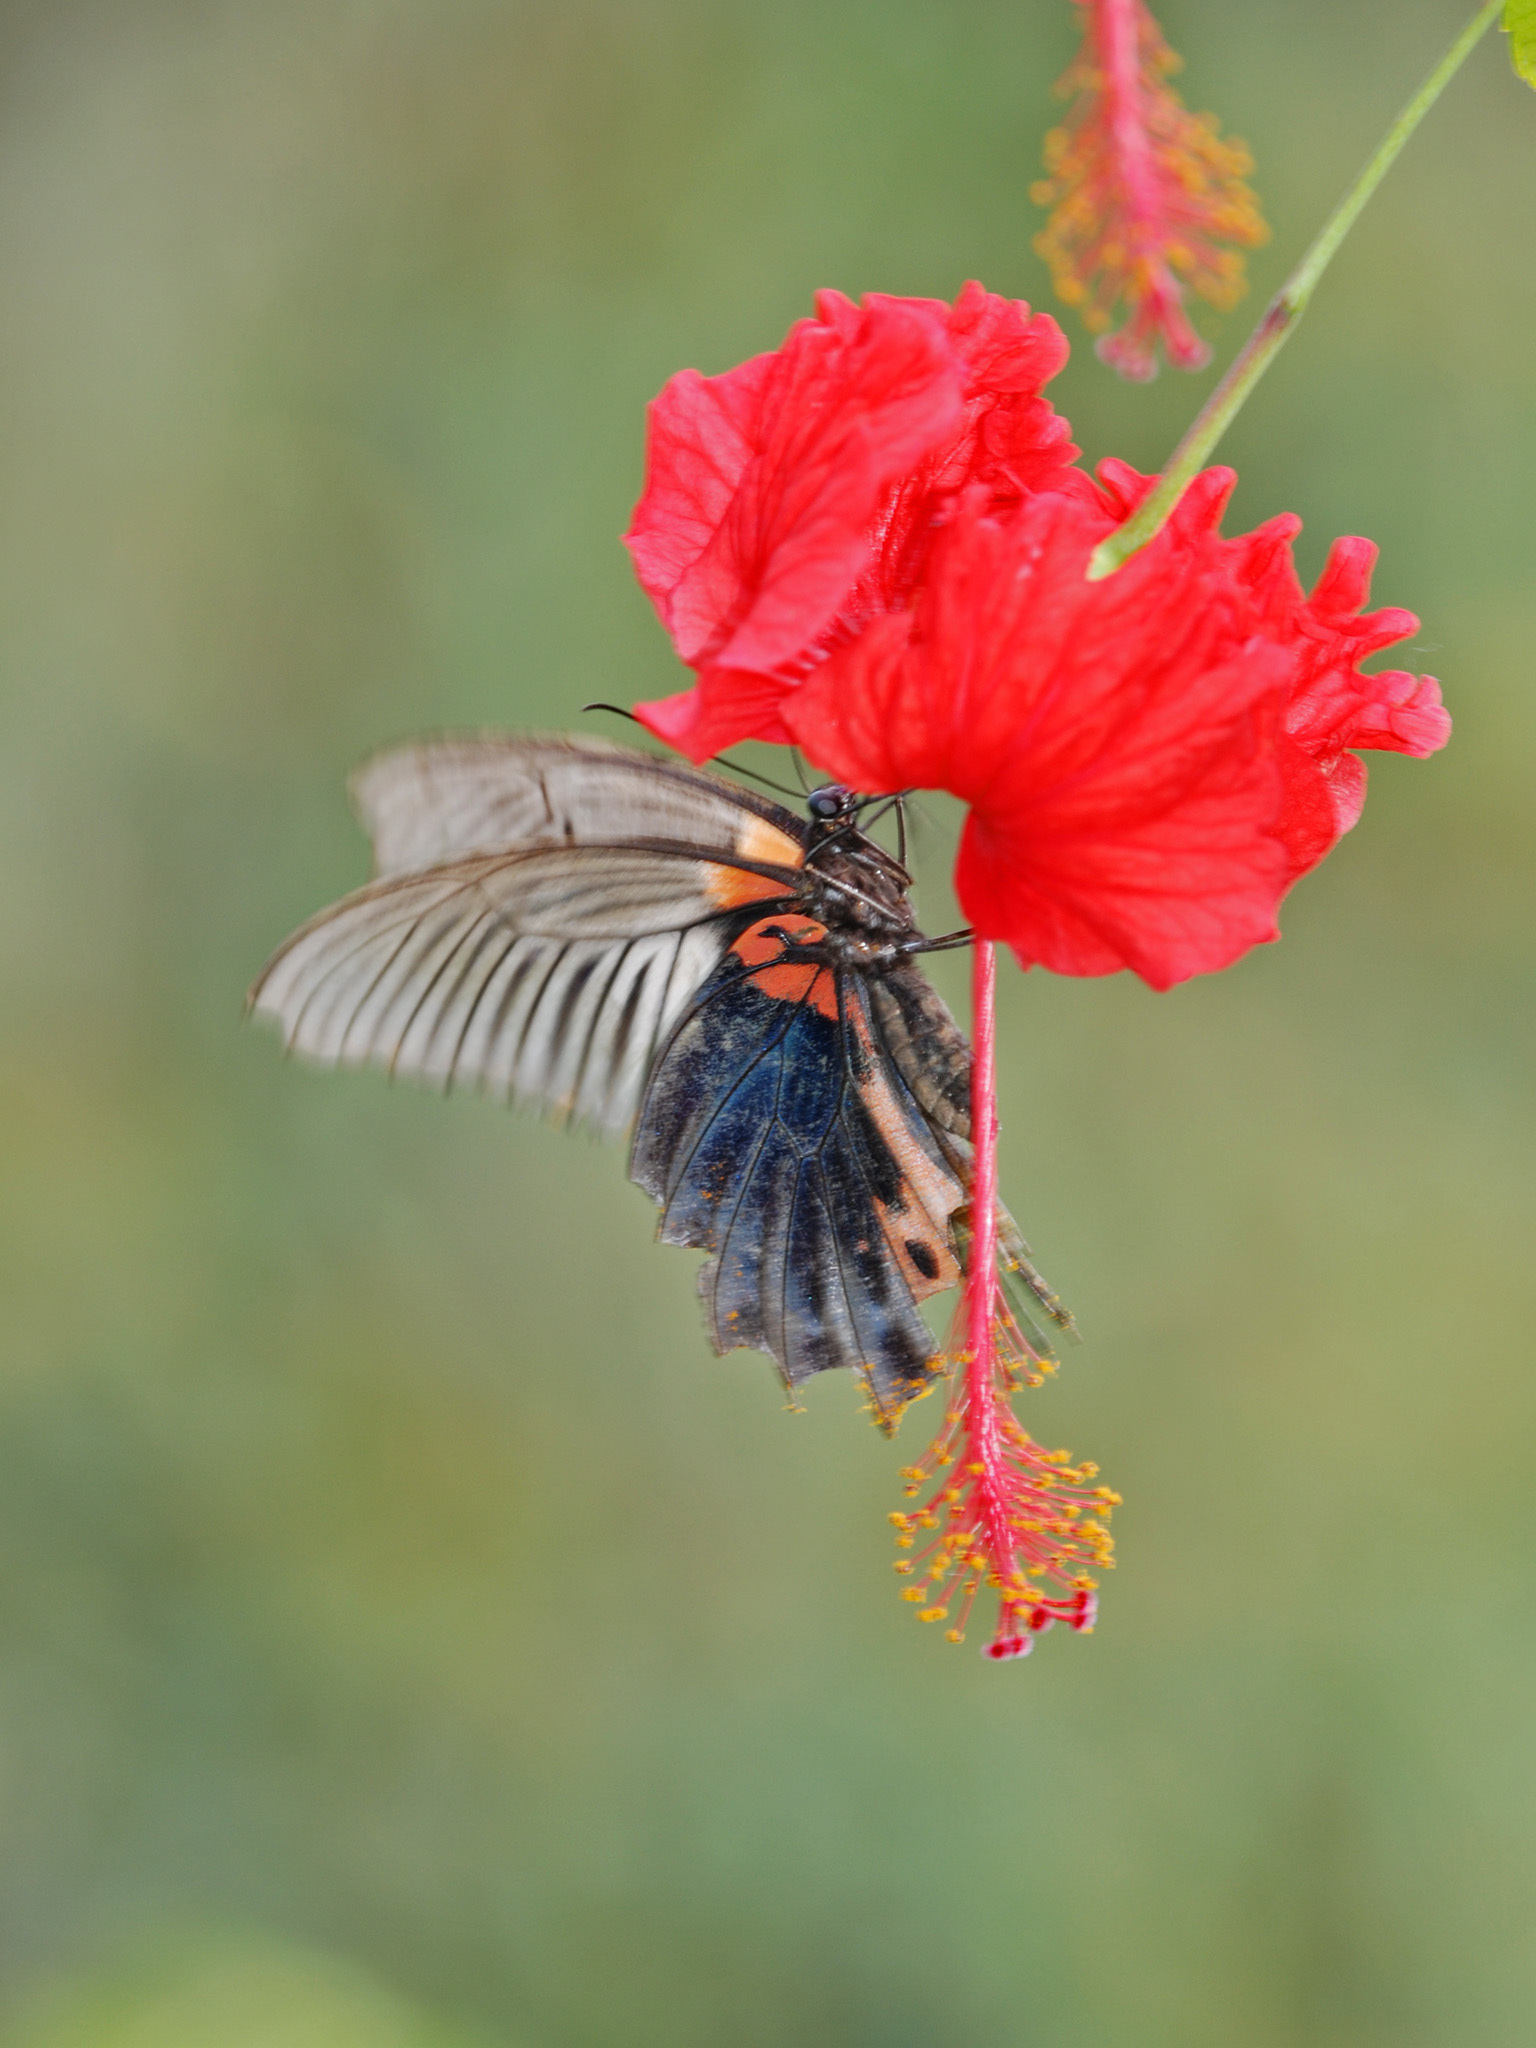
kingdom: Animalia
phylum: Arthropoda
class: Insecta
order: Lepidoptera
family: Papilionidae
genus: Papilio
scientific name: Papilio memnon
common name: Great mormon
